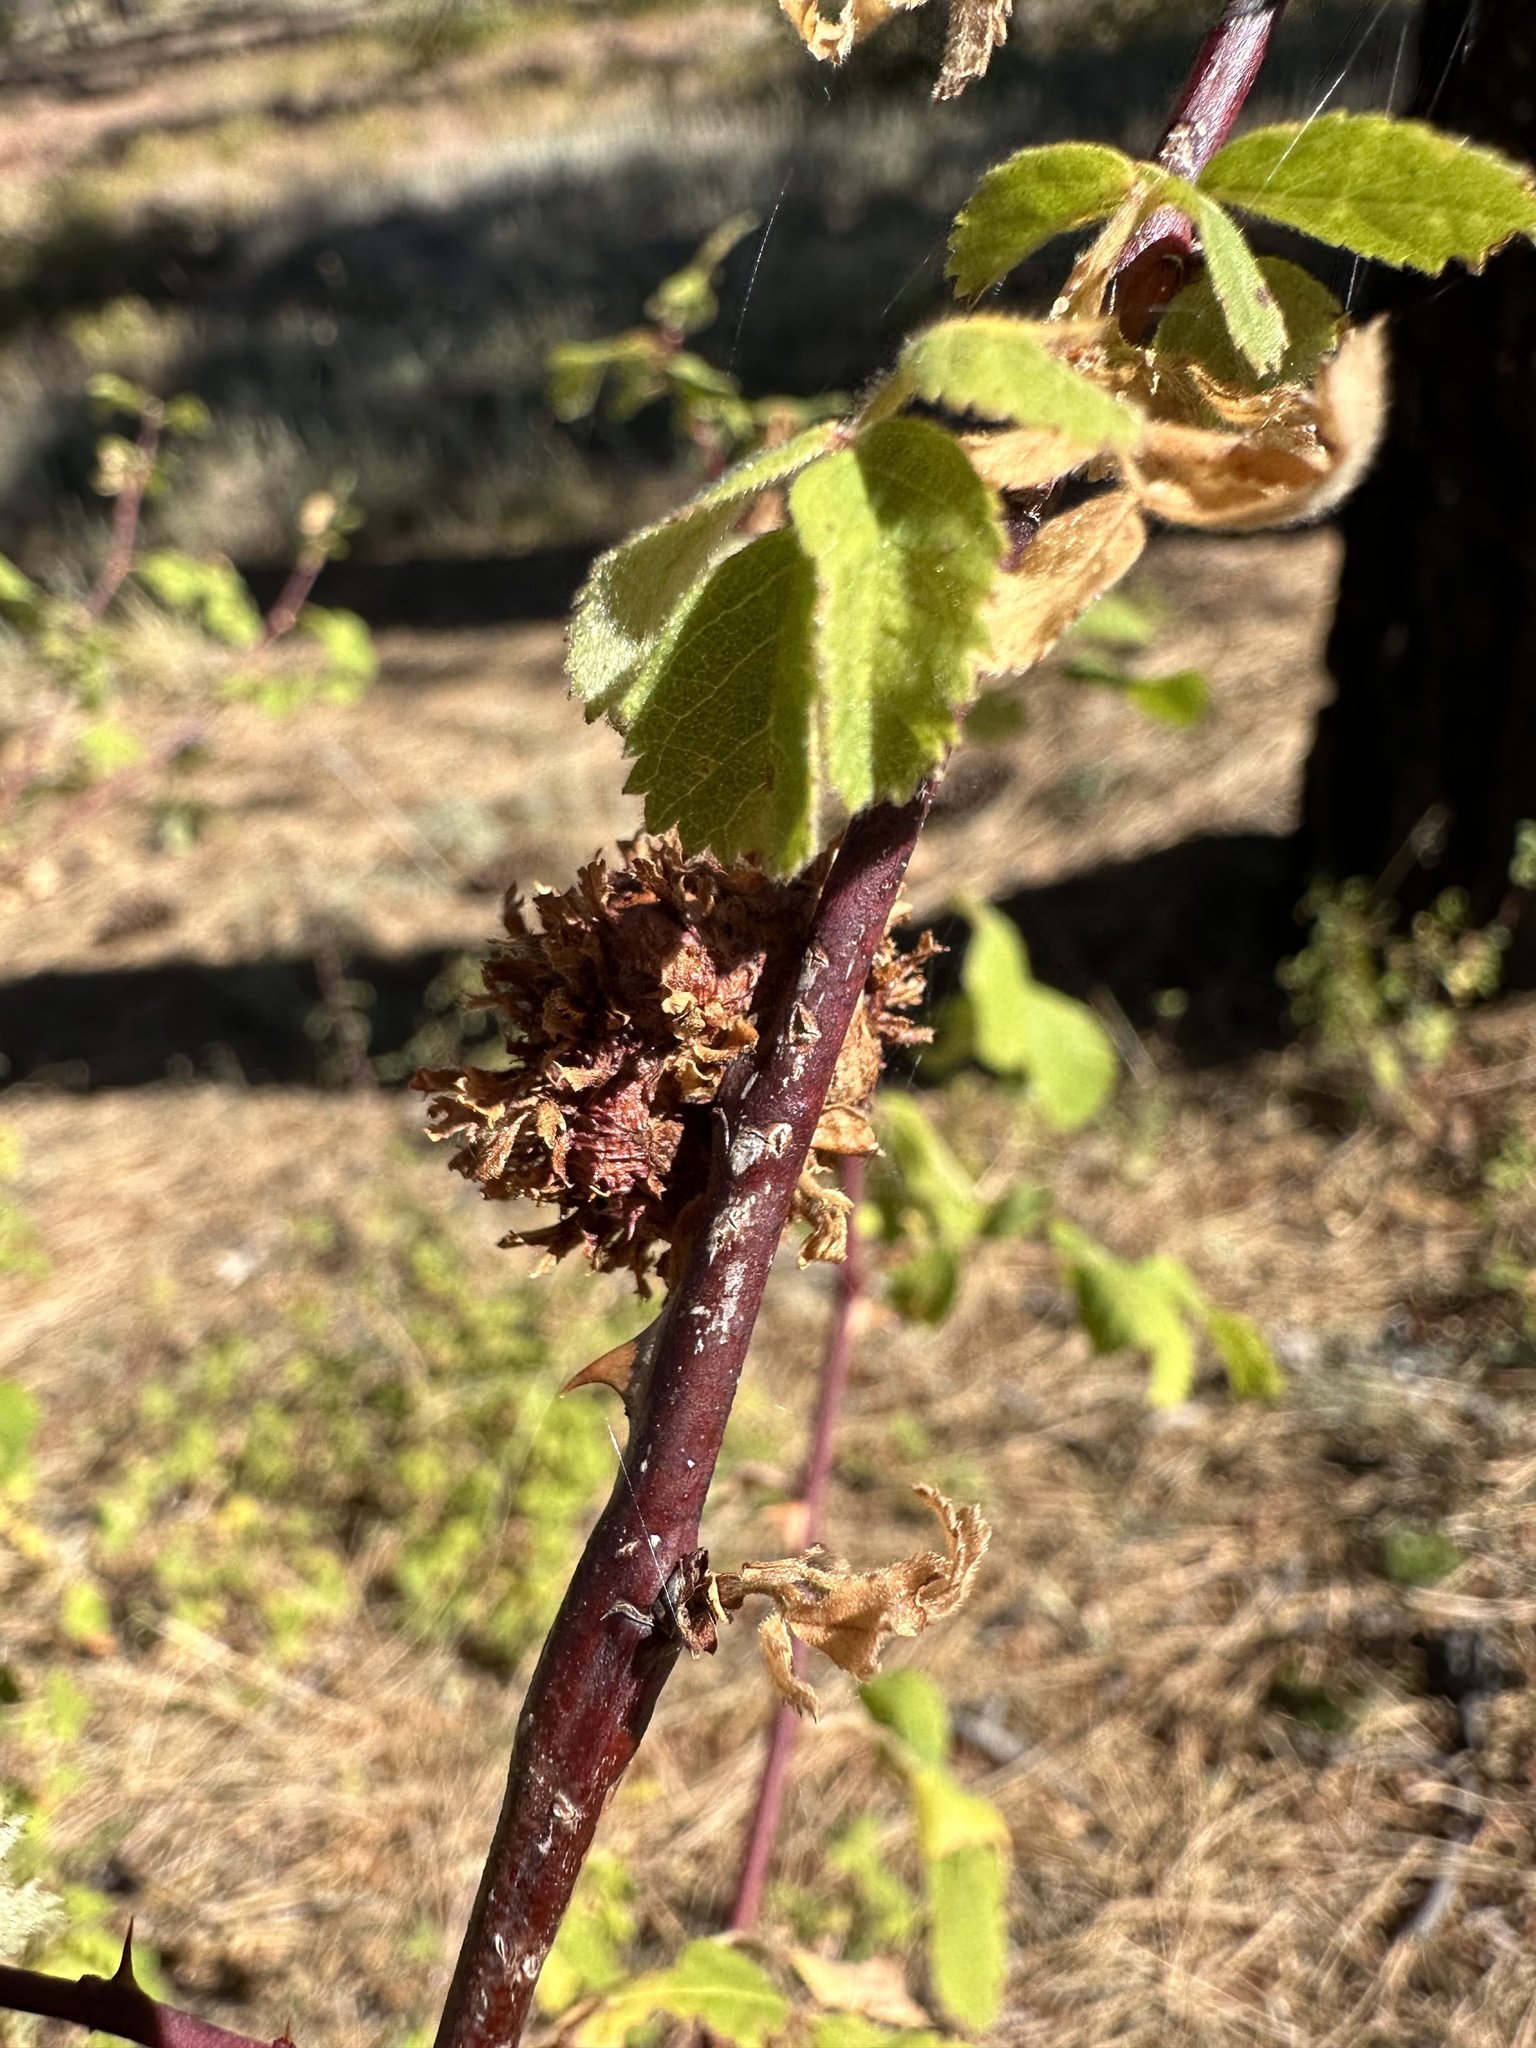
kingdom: Animalia
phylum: Arthropoda
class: Insecta
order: Hymenoptera
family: Cynipidae
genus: Diplolepis
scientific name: Diplolepis californica
